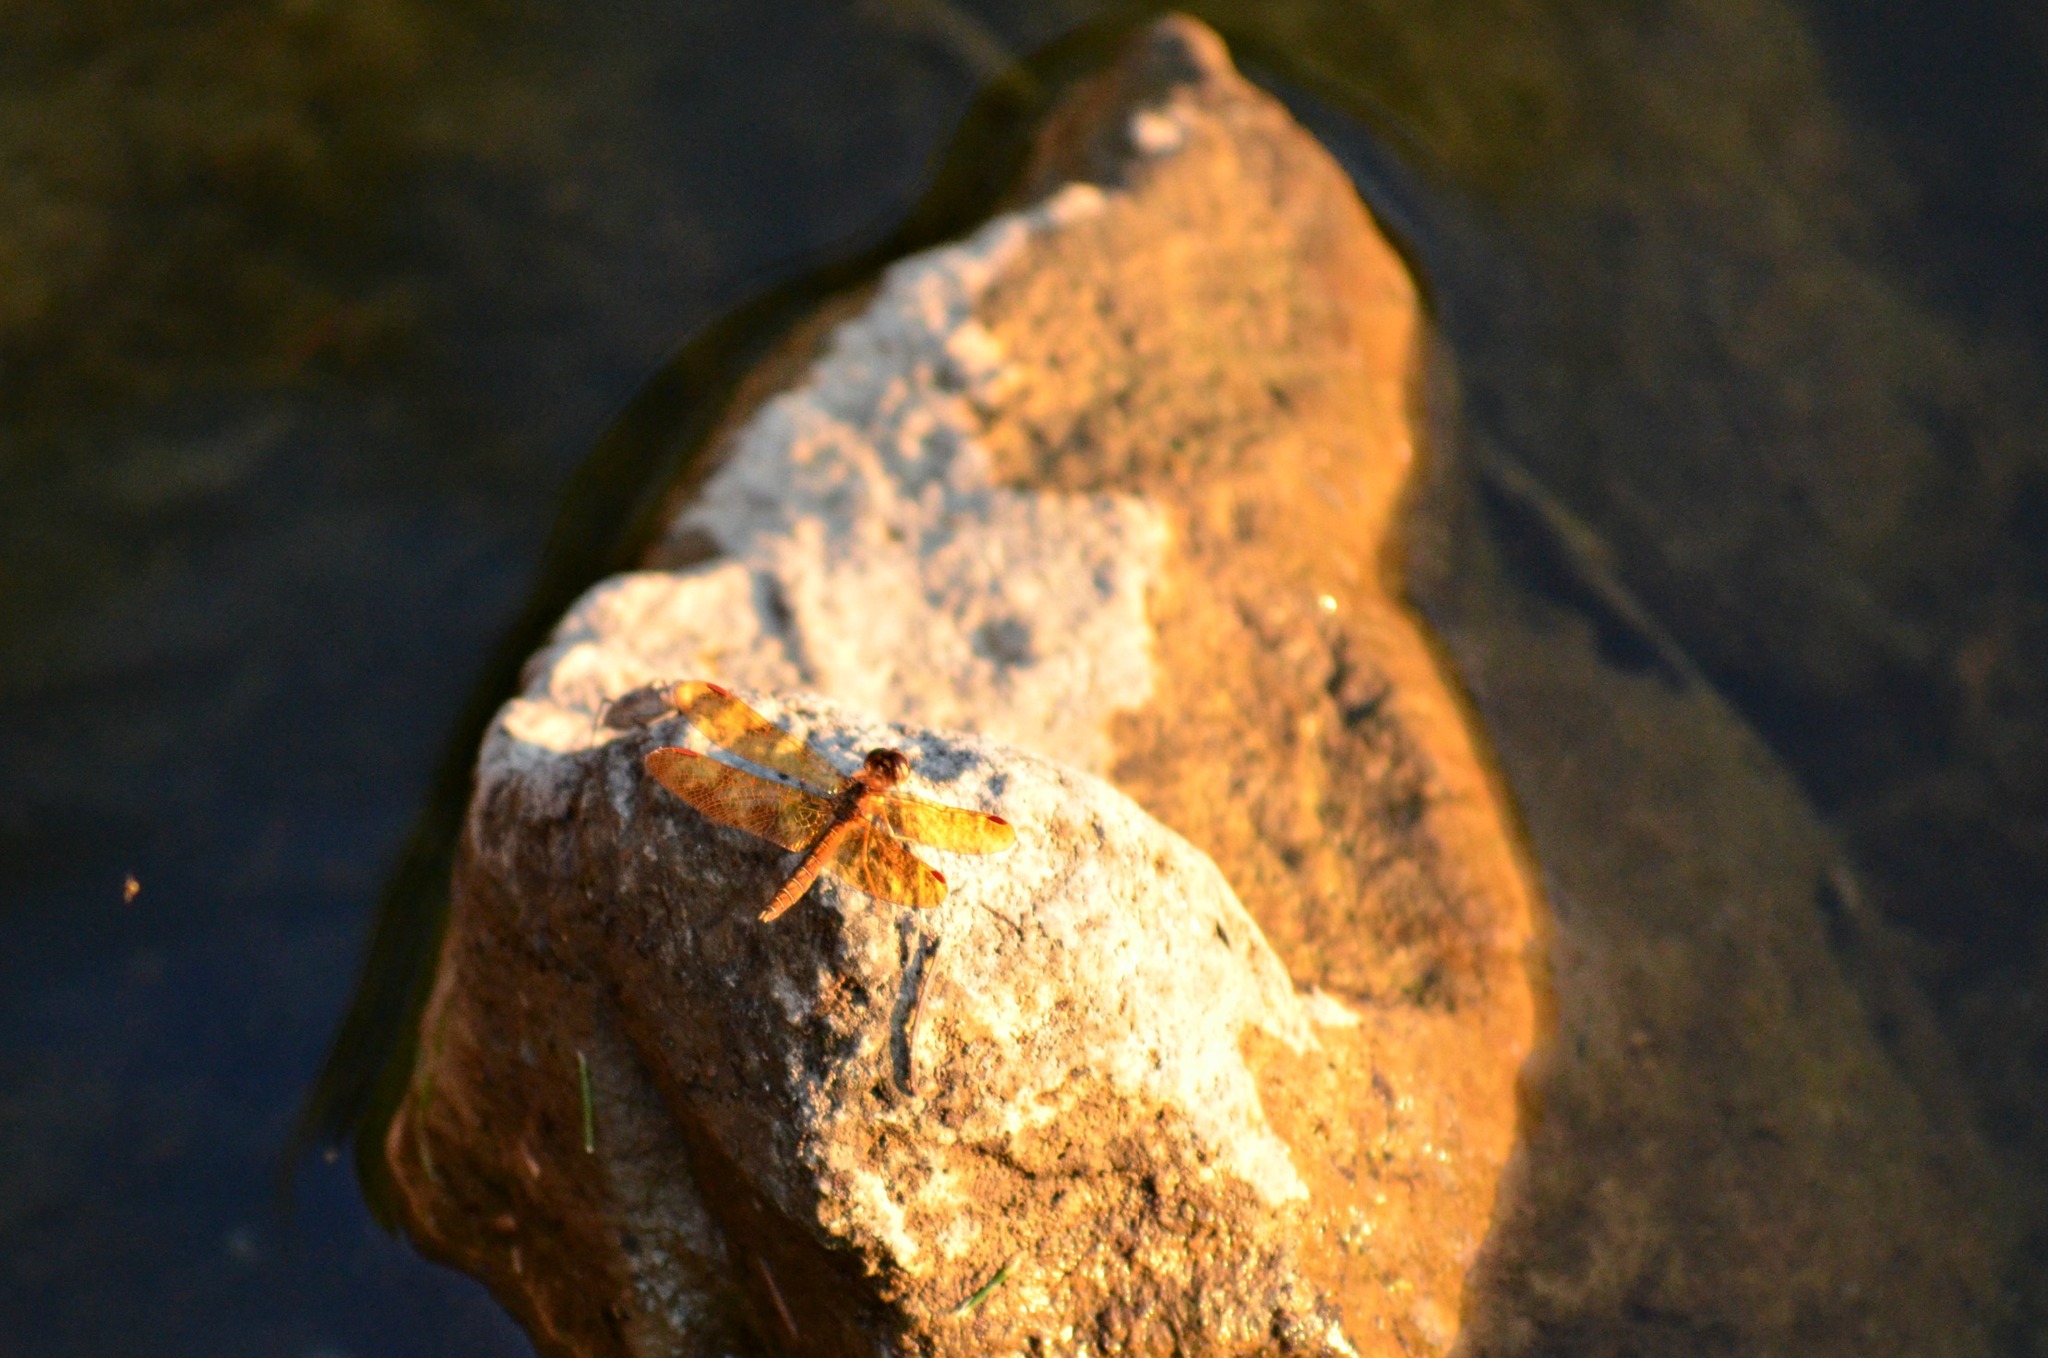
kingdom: Animalia
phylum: Arthropoda
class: Insecta
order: Odonata
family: Libellulidae
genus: Perithemis
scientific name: Perithemis tenera
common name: Eastern amberwing
